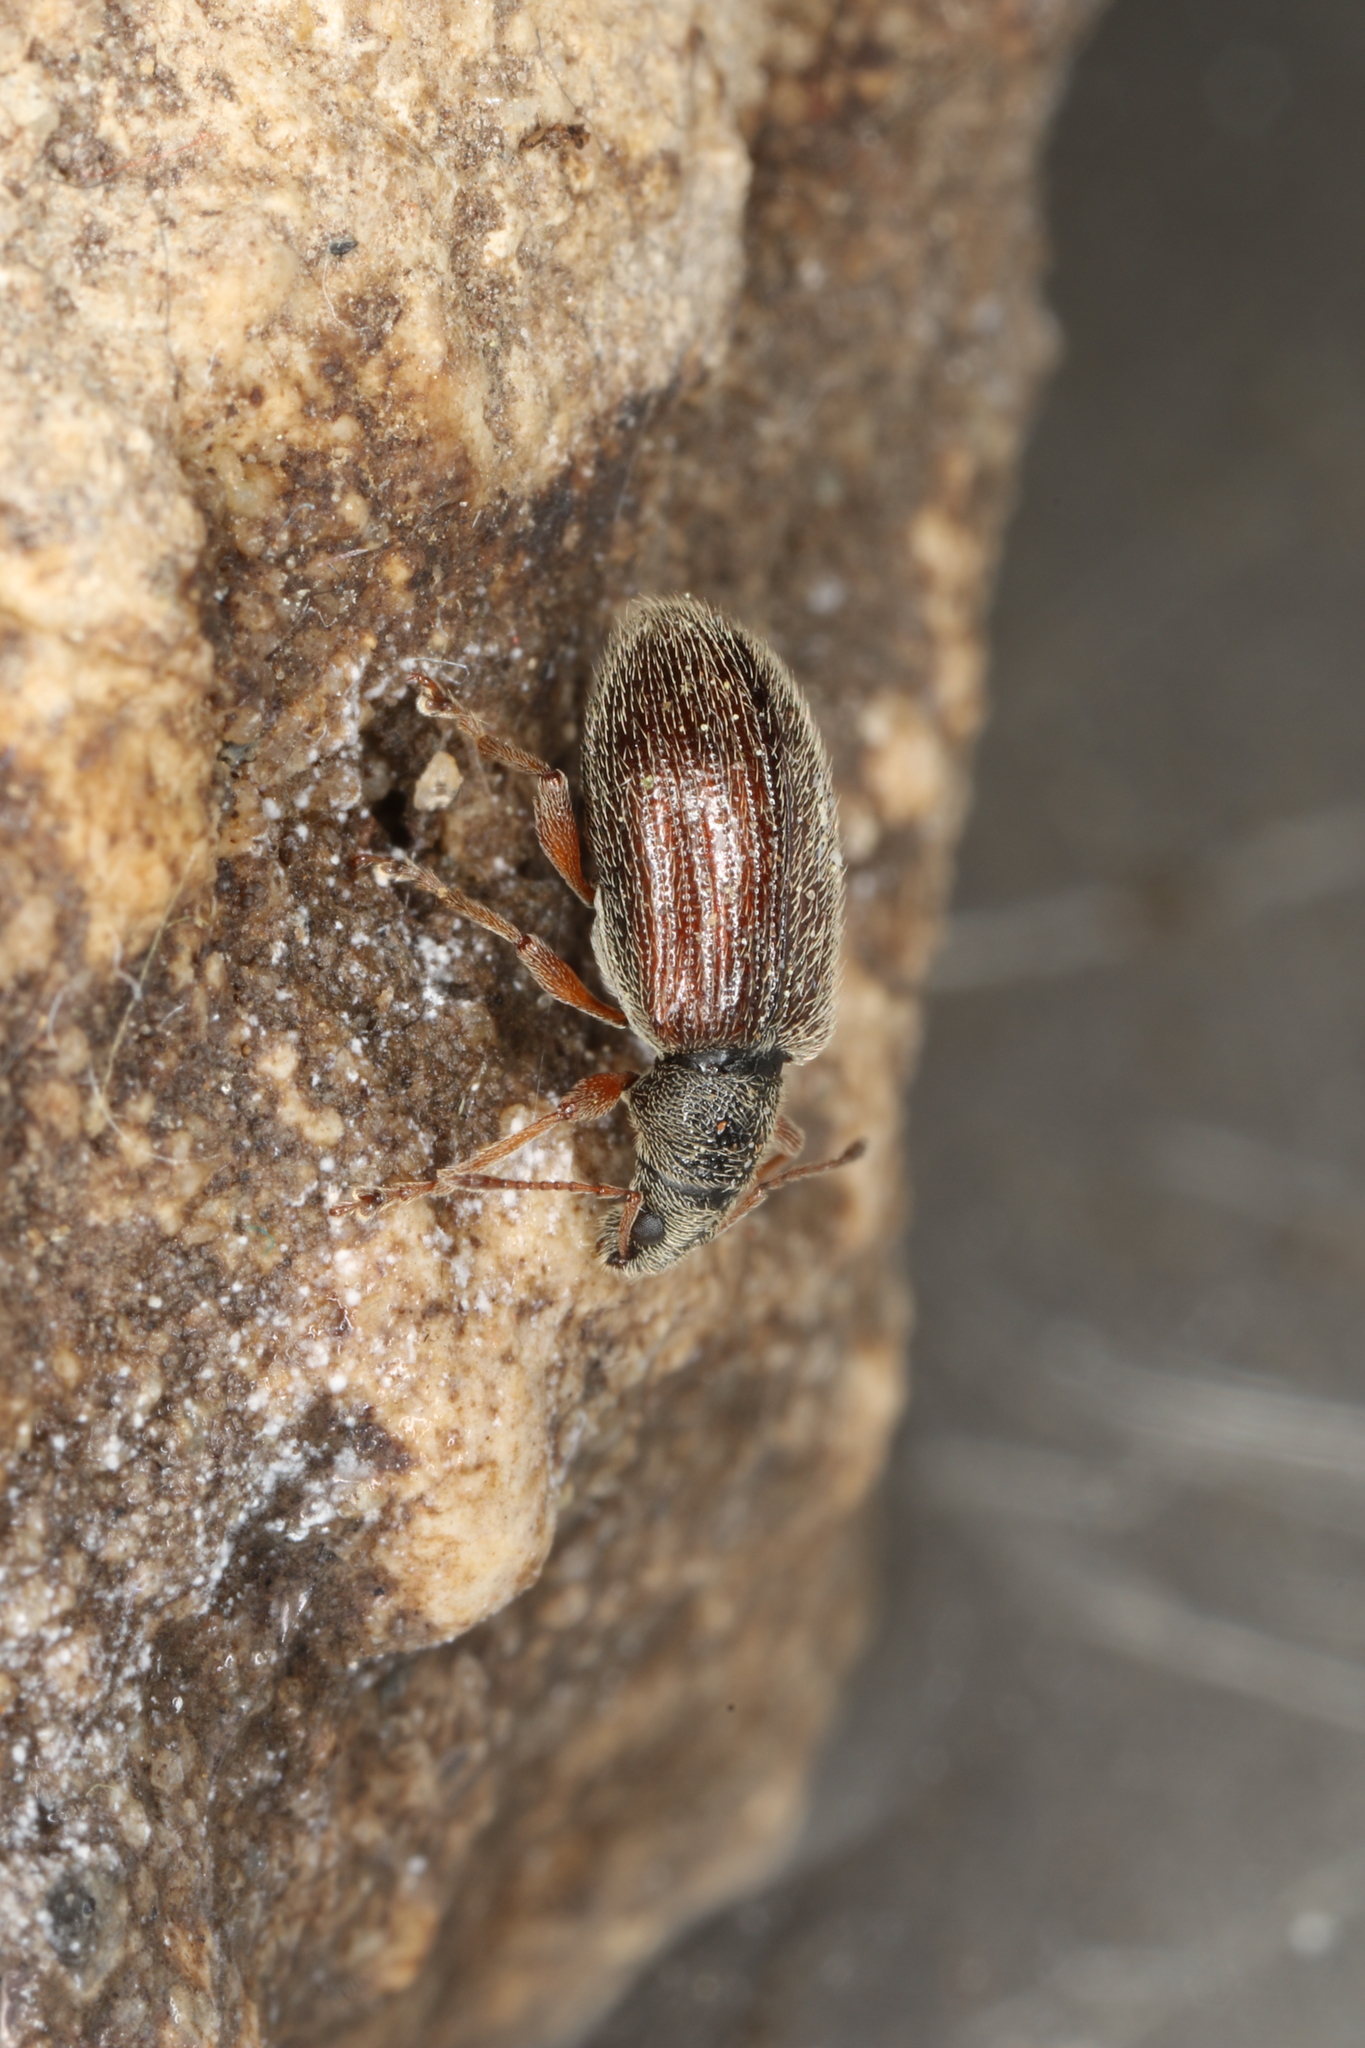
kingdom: Animalia
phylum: Arthropoda
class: Insecta
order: Coleoptera
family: Curculionidae
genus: Phyllobius
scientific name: Phyllobius oblongus
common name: Brown leaf weevil
